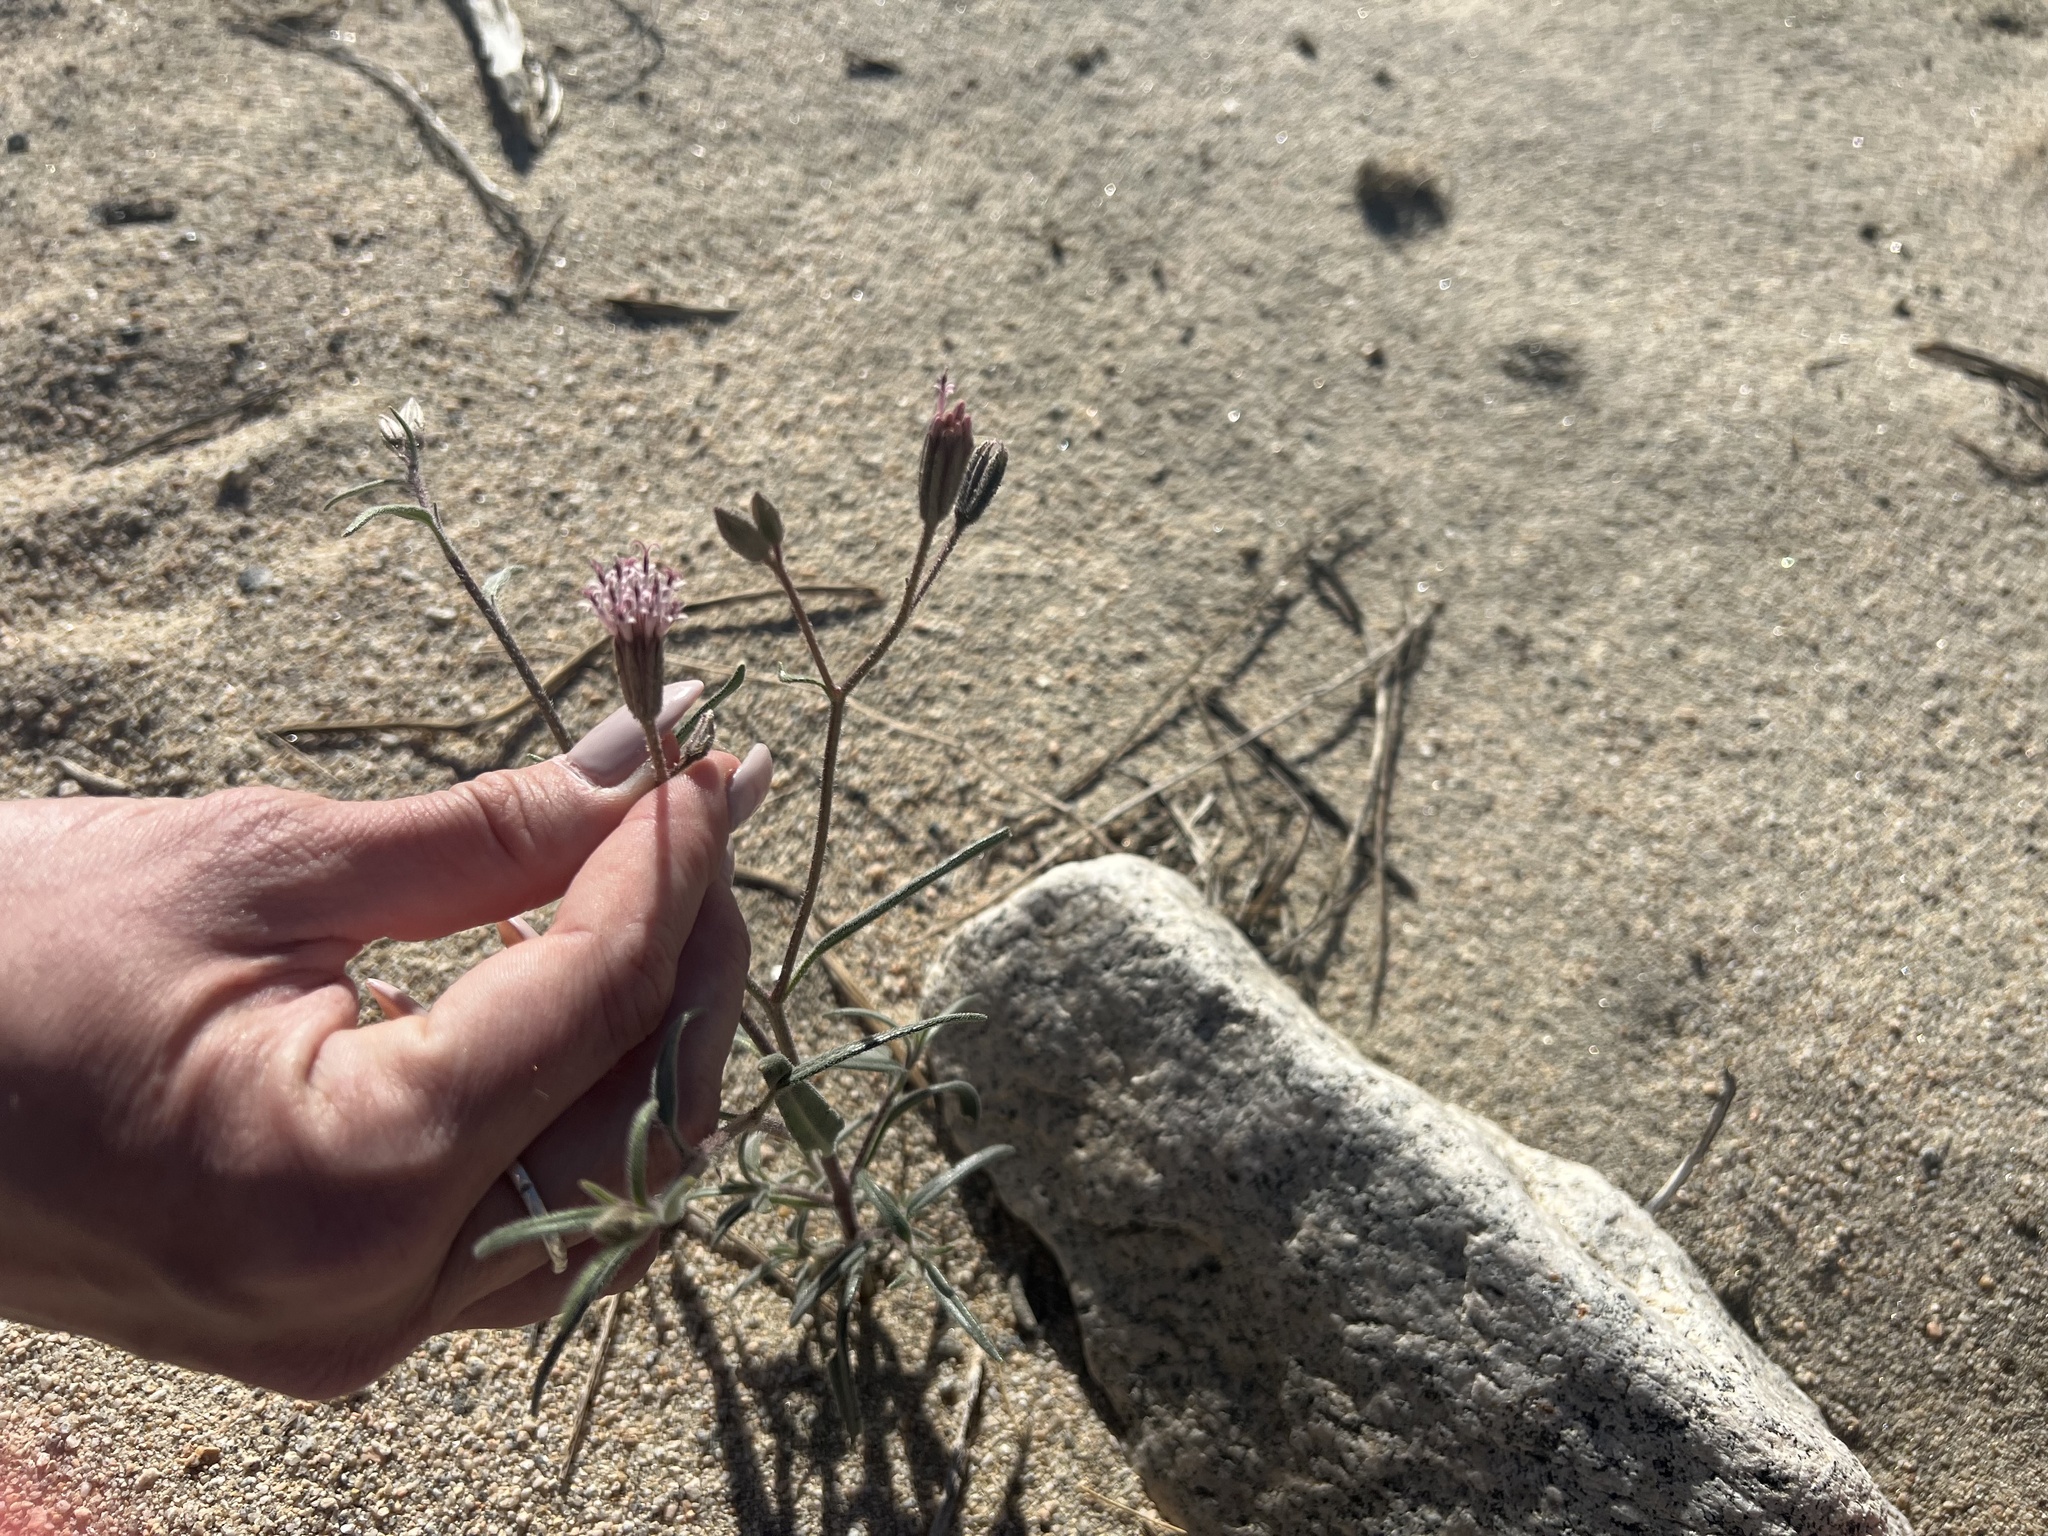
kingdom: Plantae
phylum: Tracheophyta
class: Magnoliopsida
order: Asterales
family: Asteraceae
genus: Palafoxia
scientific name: Palafoxia arida
